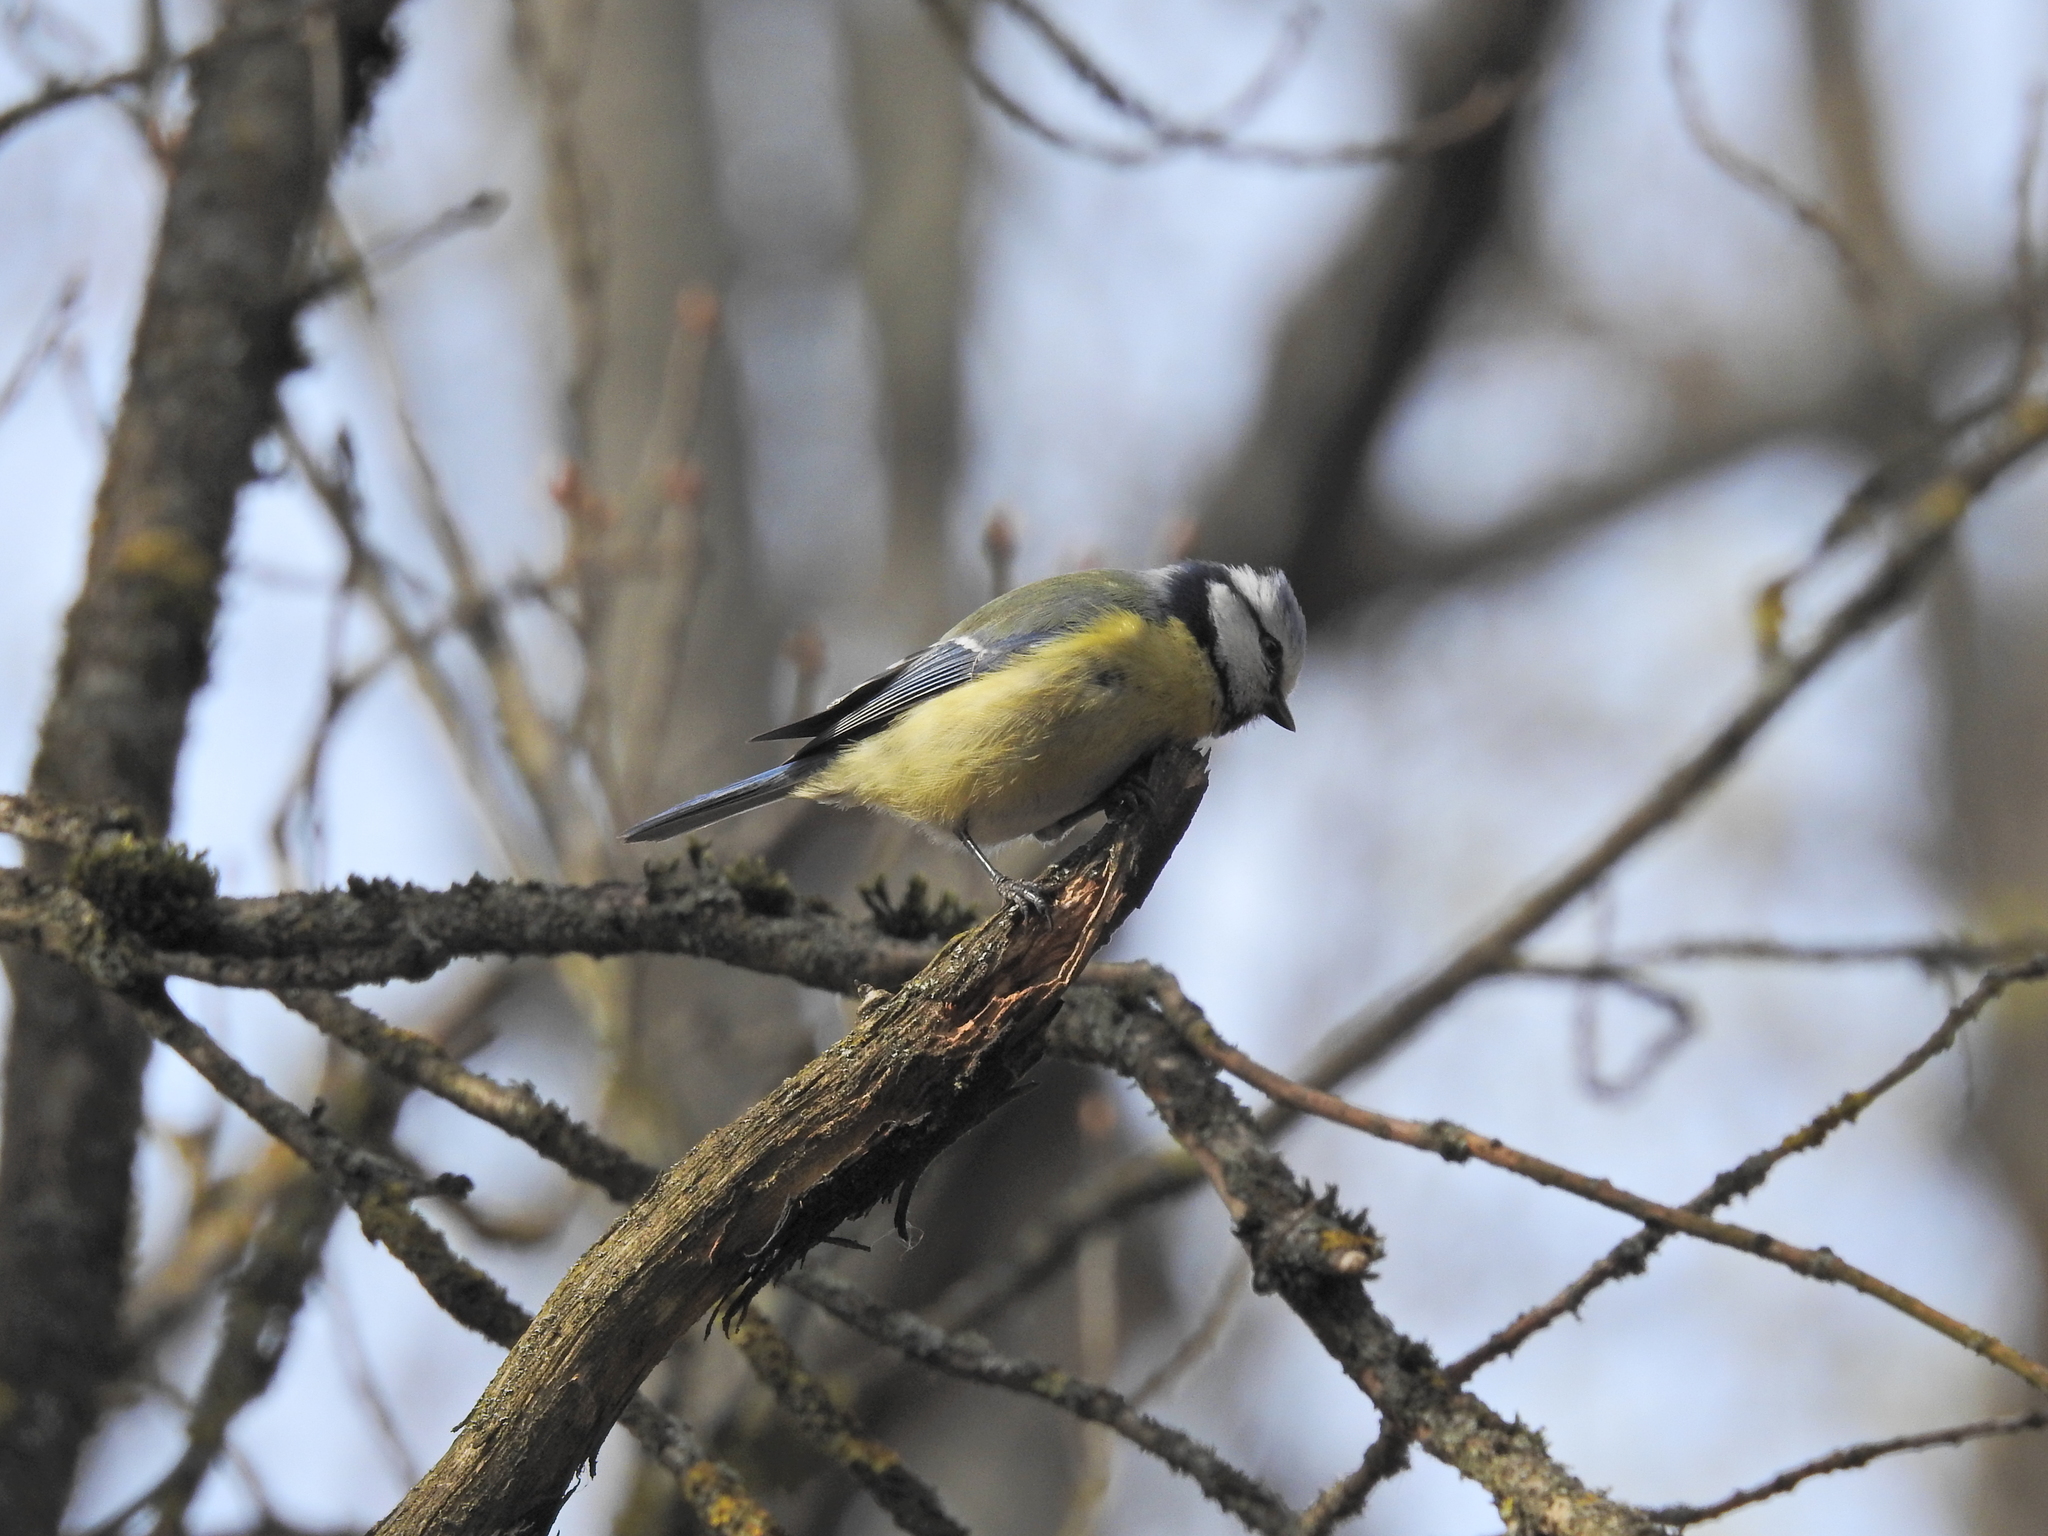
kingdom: Animalia
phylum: Chordata
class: Aves
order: Passeriformes
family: Paridae
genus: Cyanistes
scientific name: Cyanistes caeruleus
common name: Eurasian blue tit
